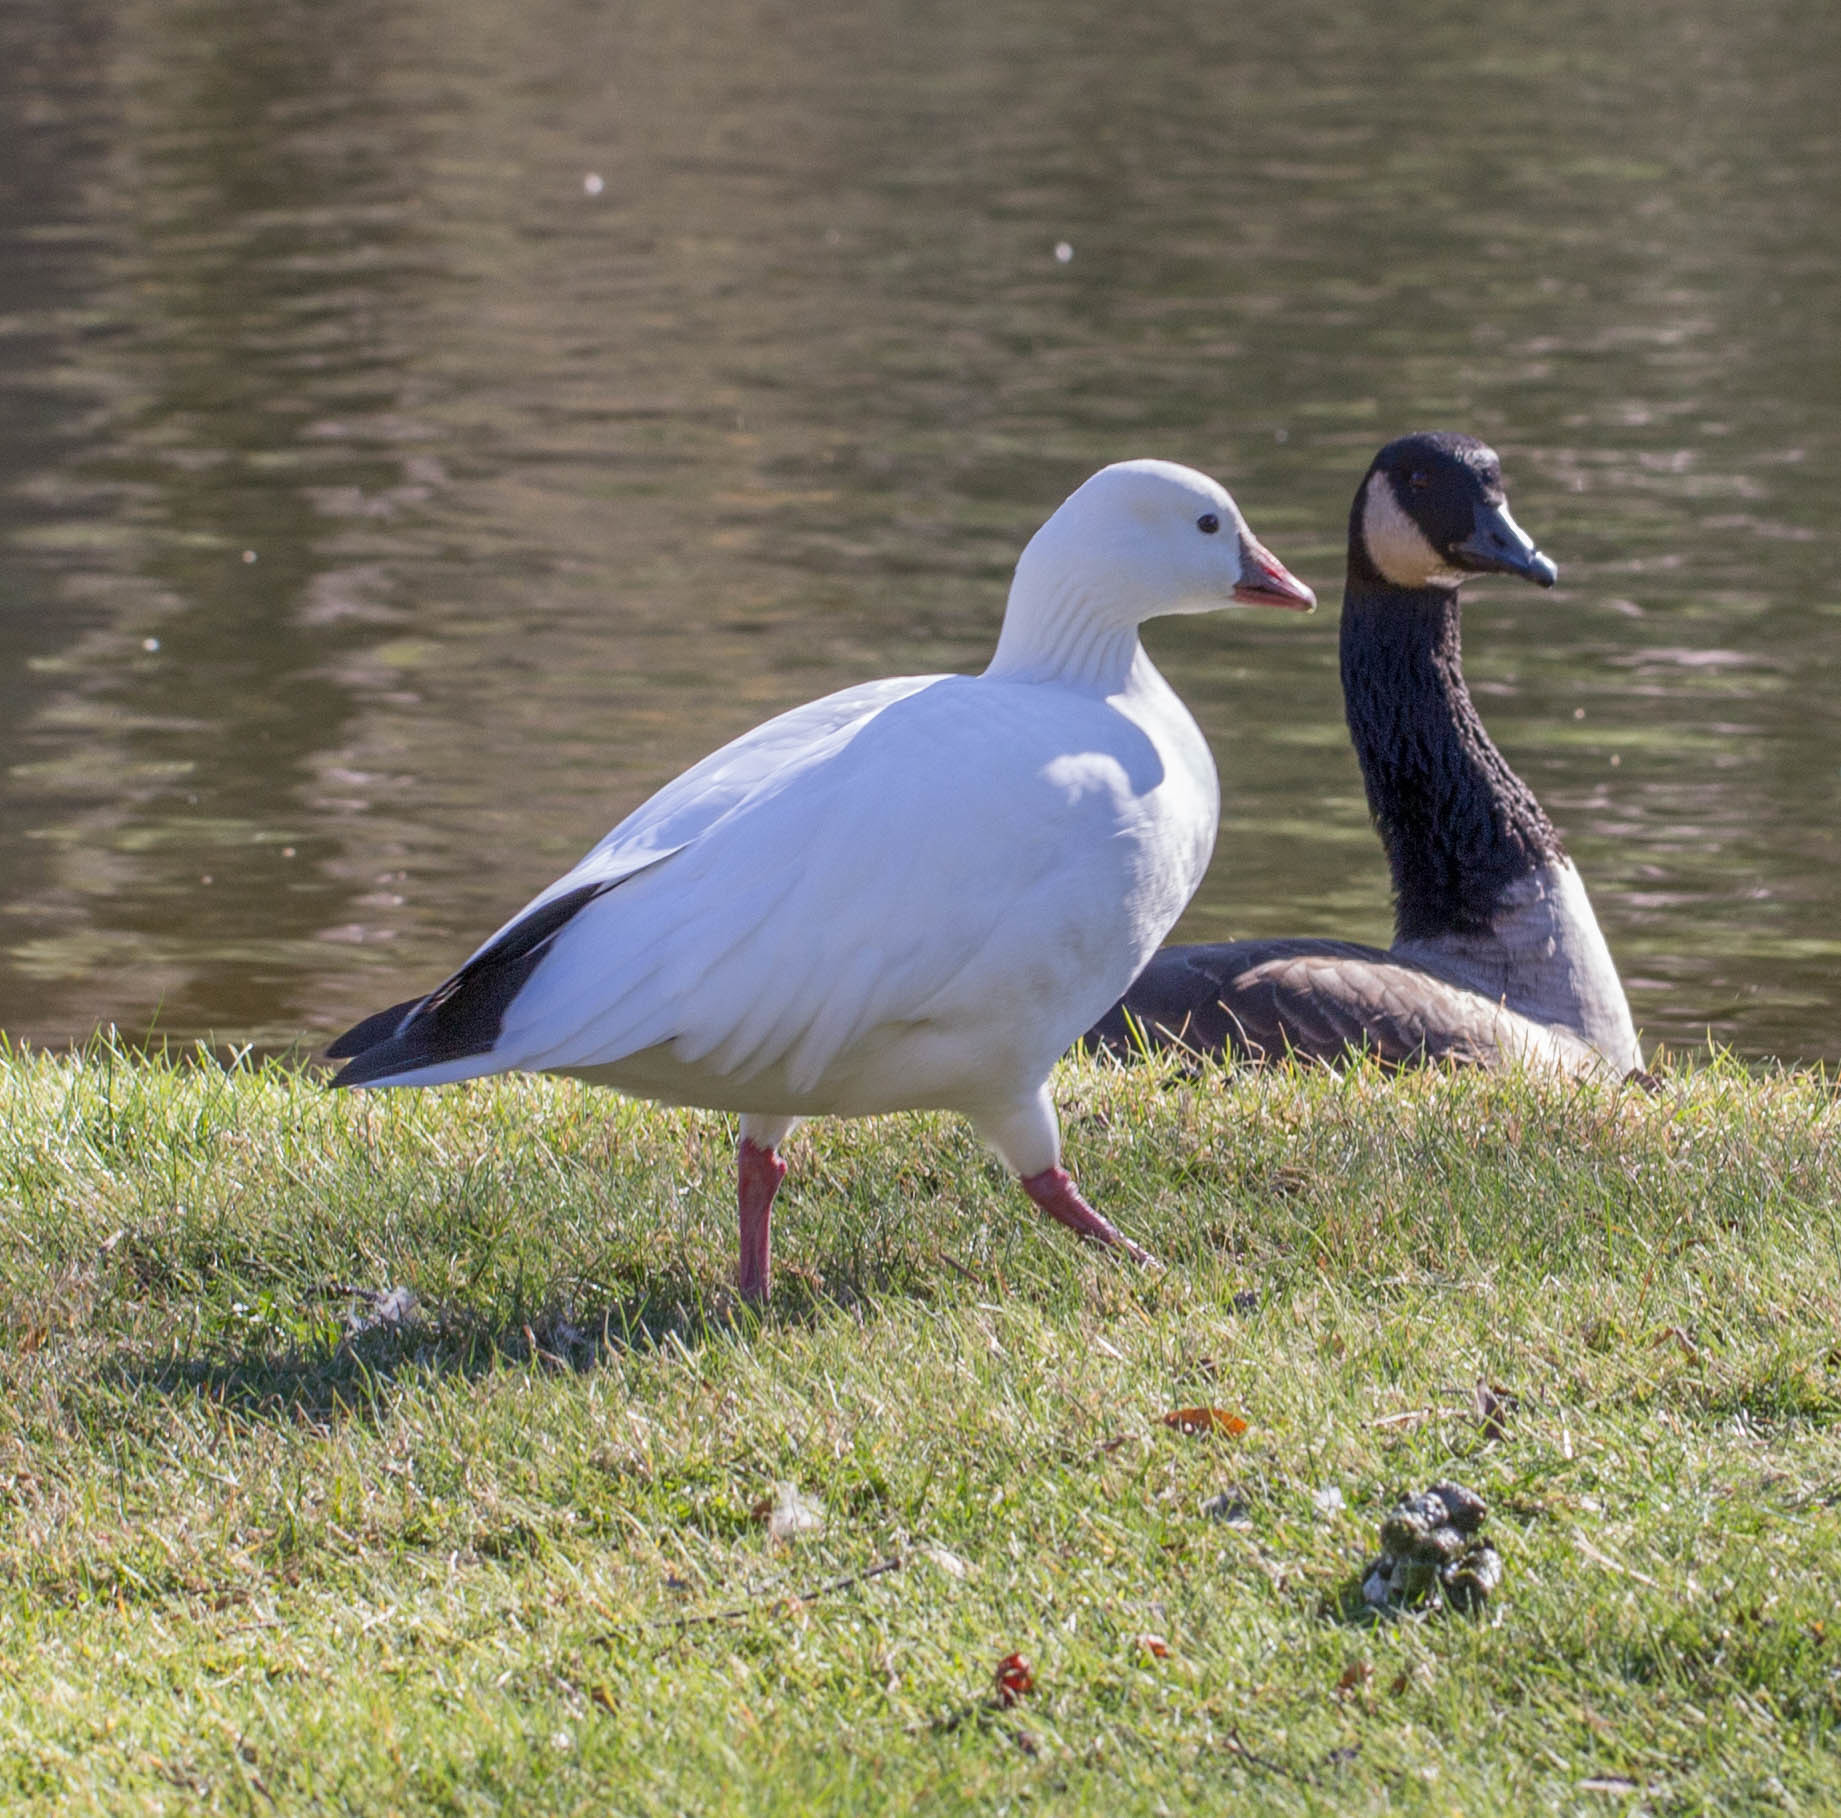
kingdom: Animalia
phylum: Chordata
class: Aves
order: Anseriformes
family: Anatidae
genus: Anser
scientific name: Anser rossii
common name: Ross's goose
